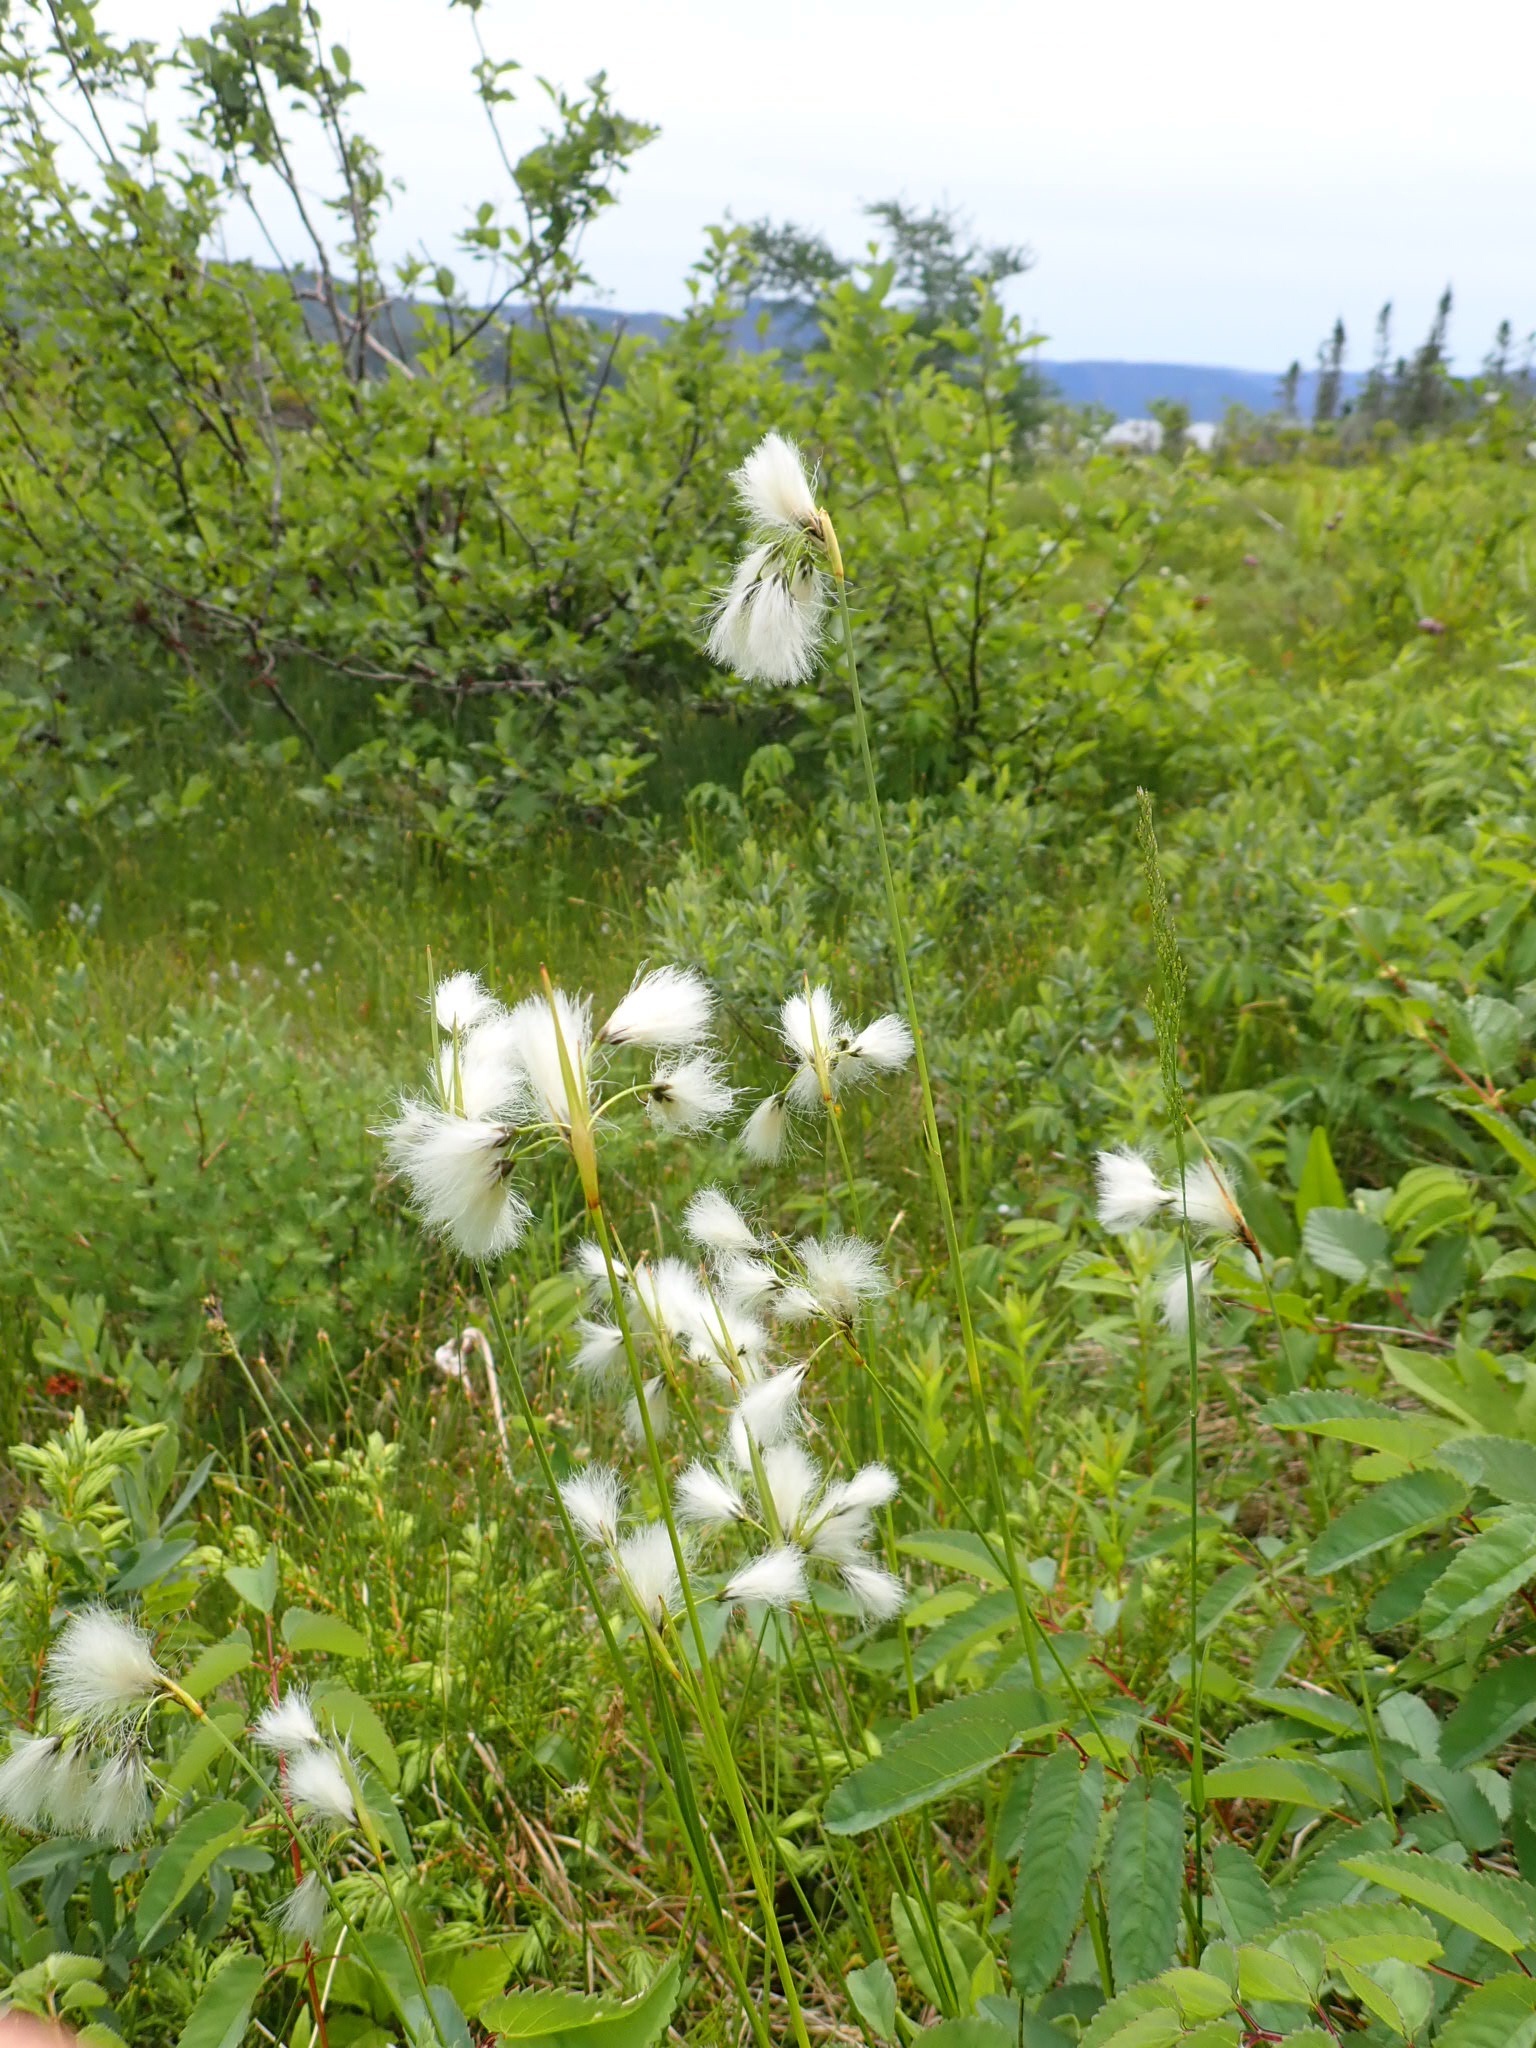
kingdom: Plantae
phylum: Tracheophyta
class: Liliopsida
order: Poales
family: Cyperaceae
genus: Eriophorum
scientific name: Eriophorum angustifolium
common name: Common cottongrass
